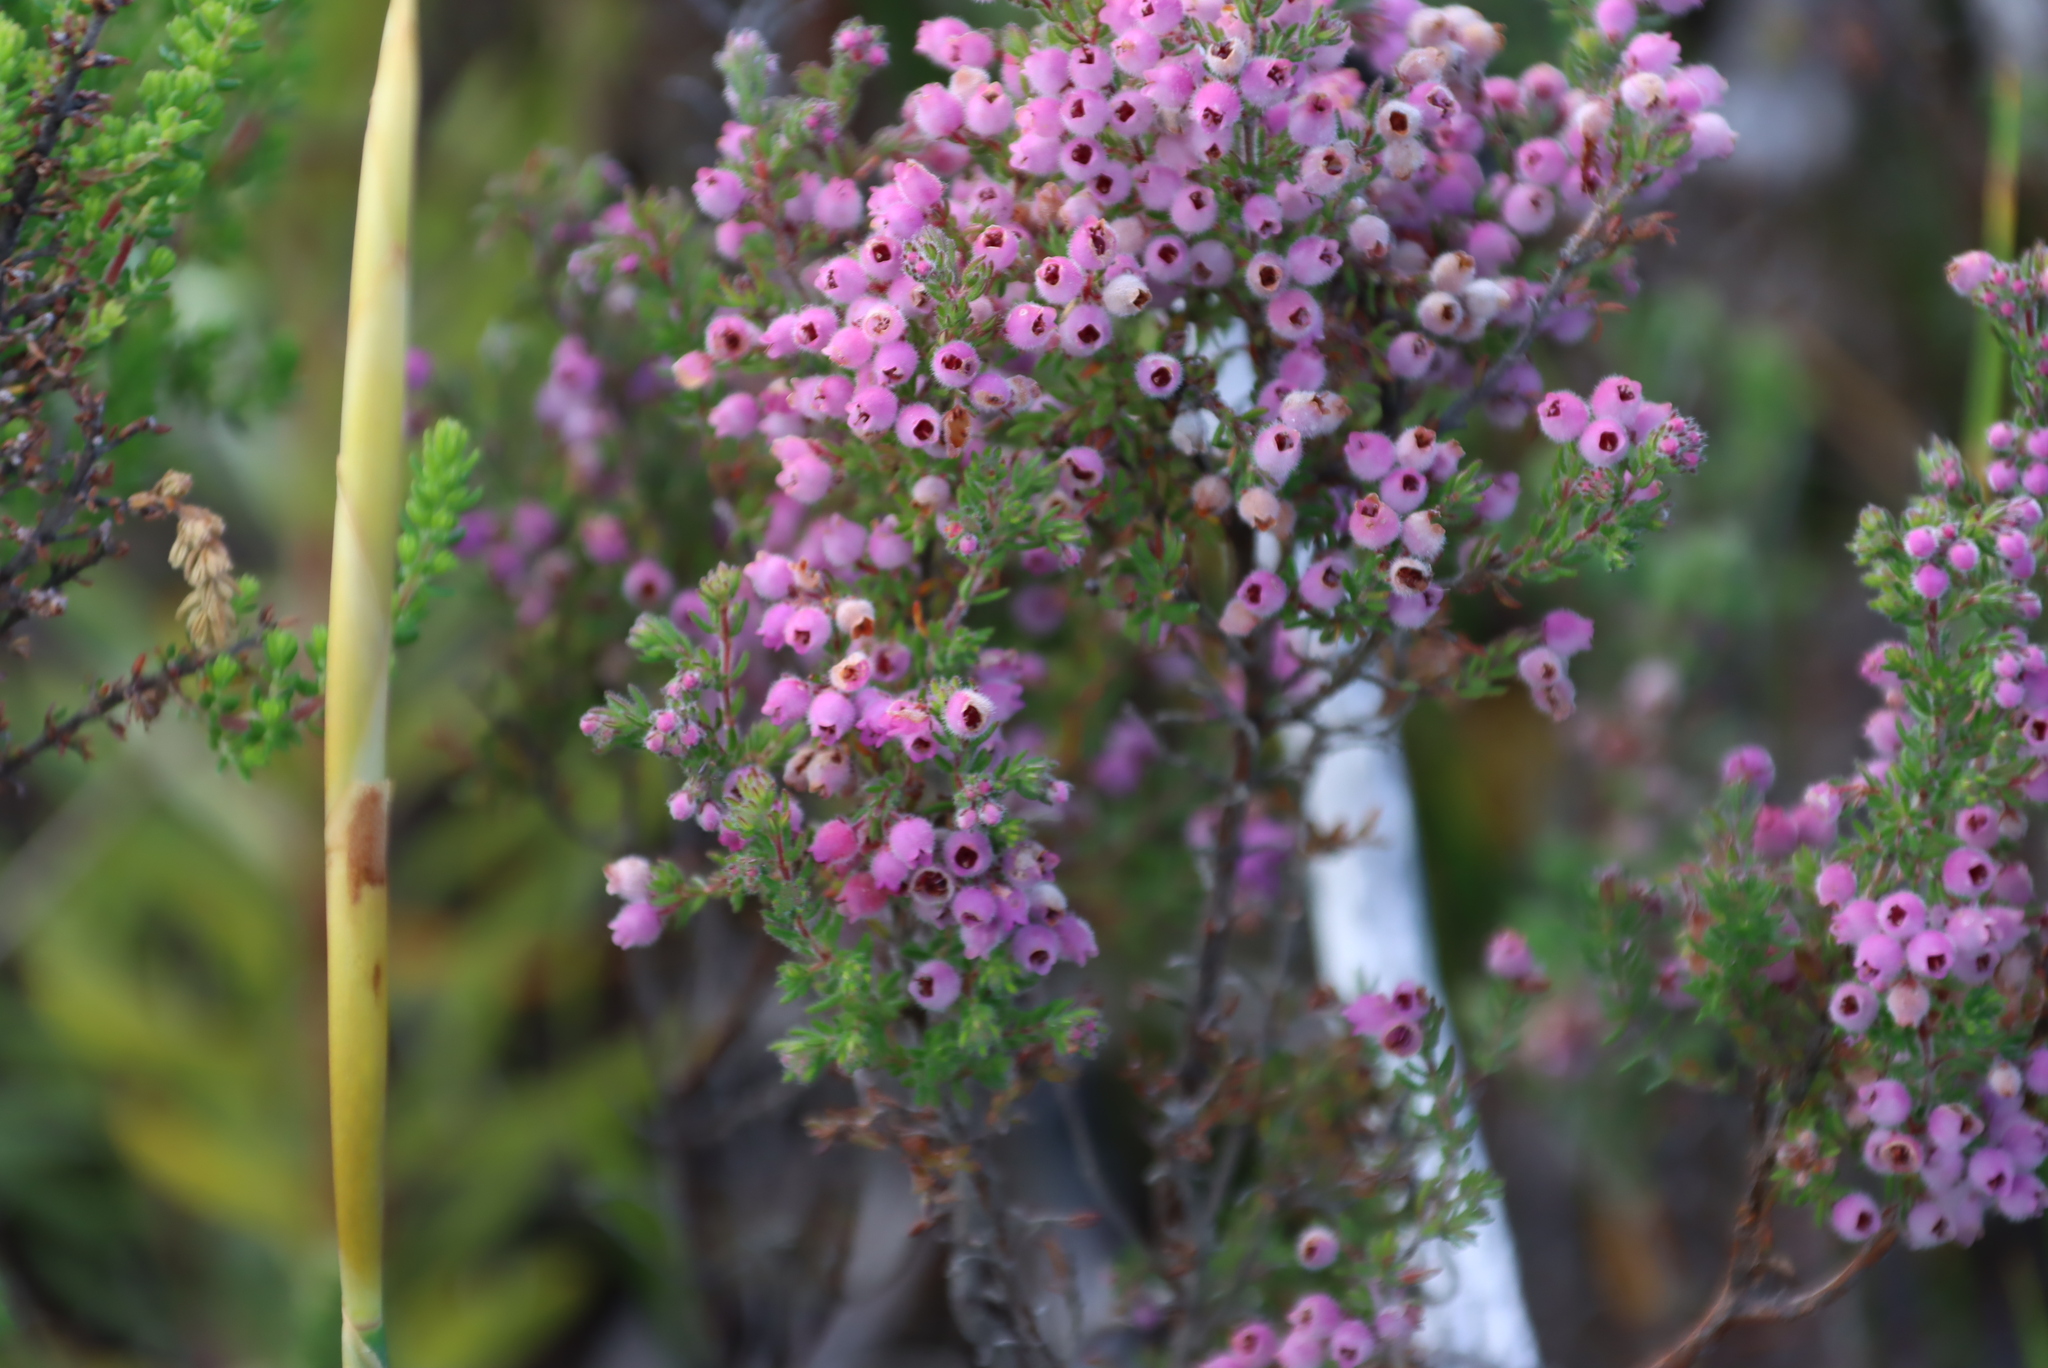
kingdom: Plantae
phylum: Tracheophyta
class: Magnoliopsida
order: Ericales
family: Ericaceae
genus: Erica
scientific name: Erica hirtiflora
